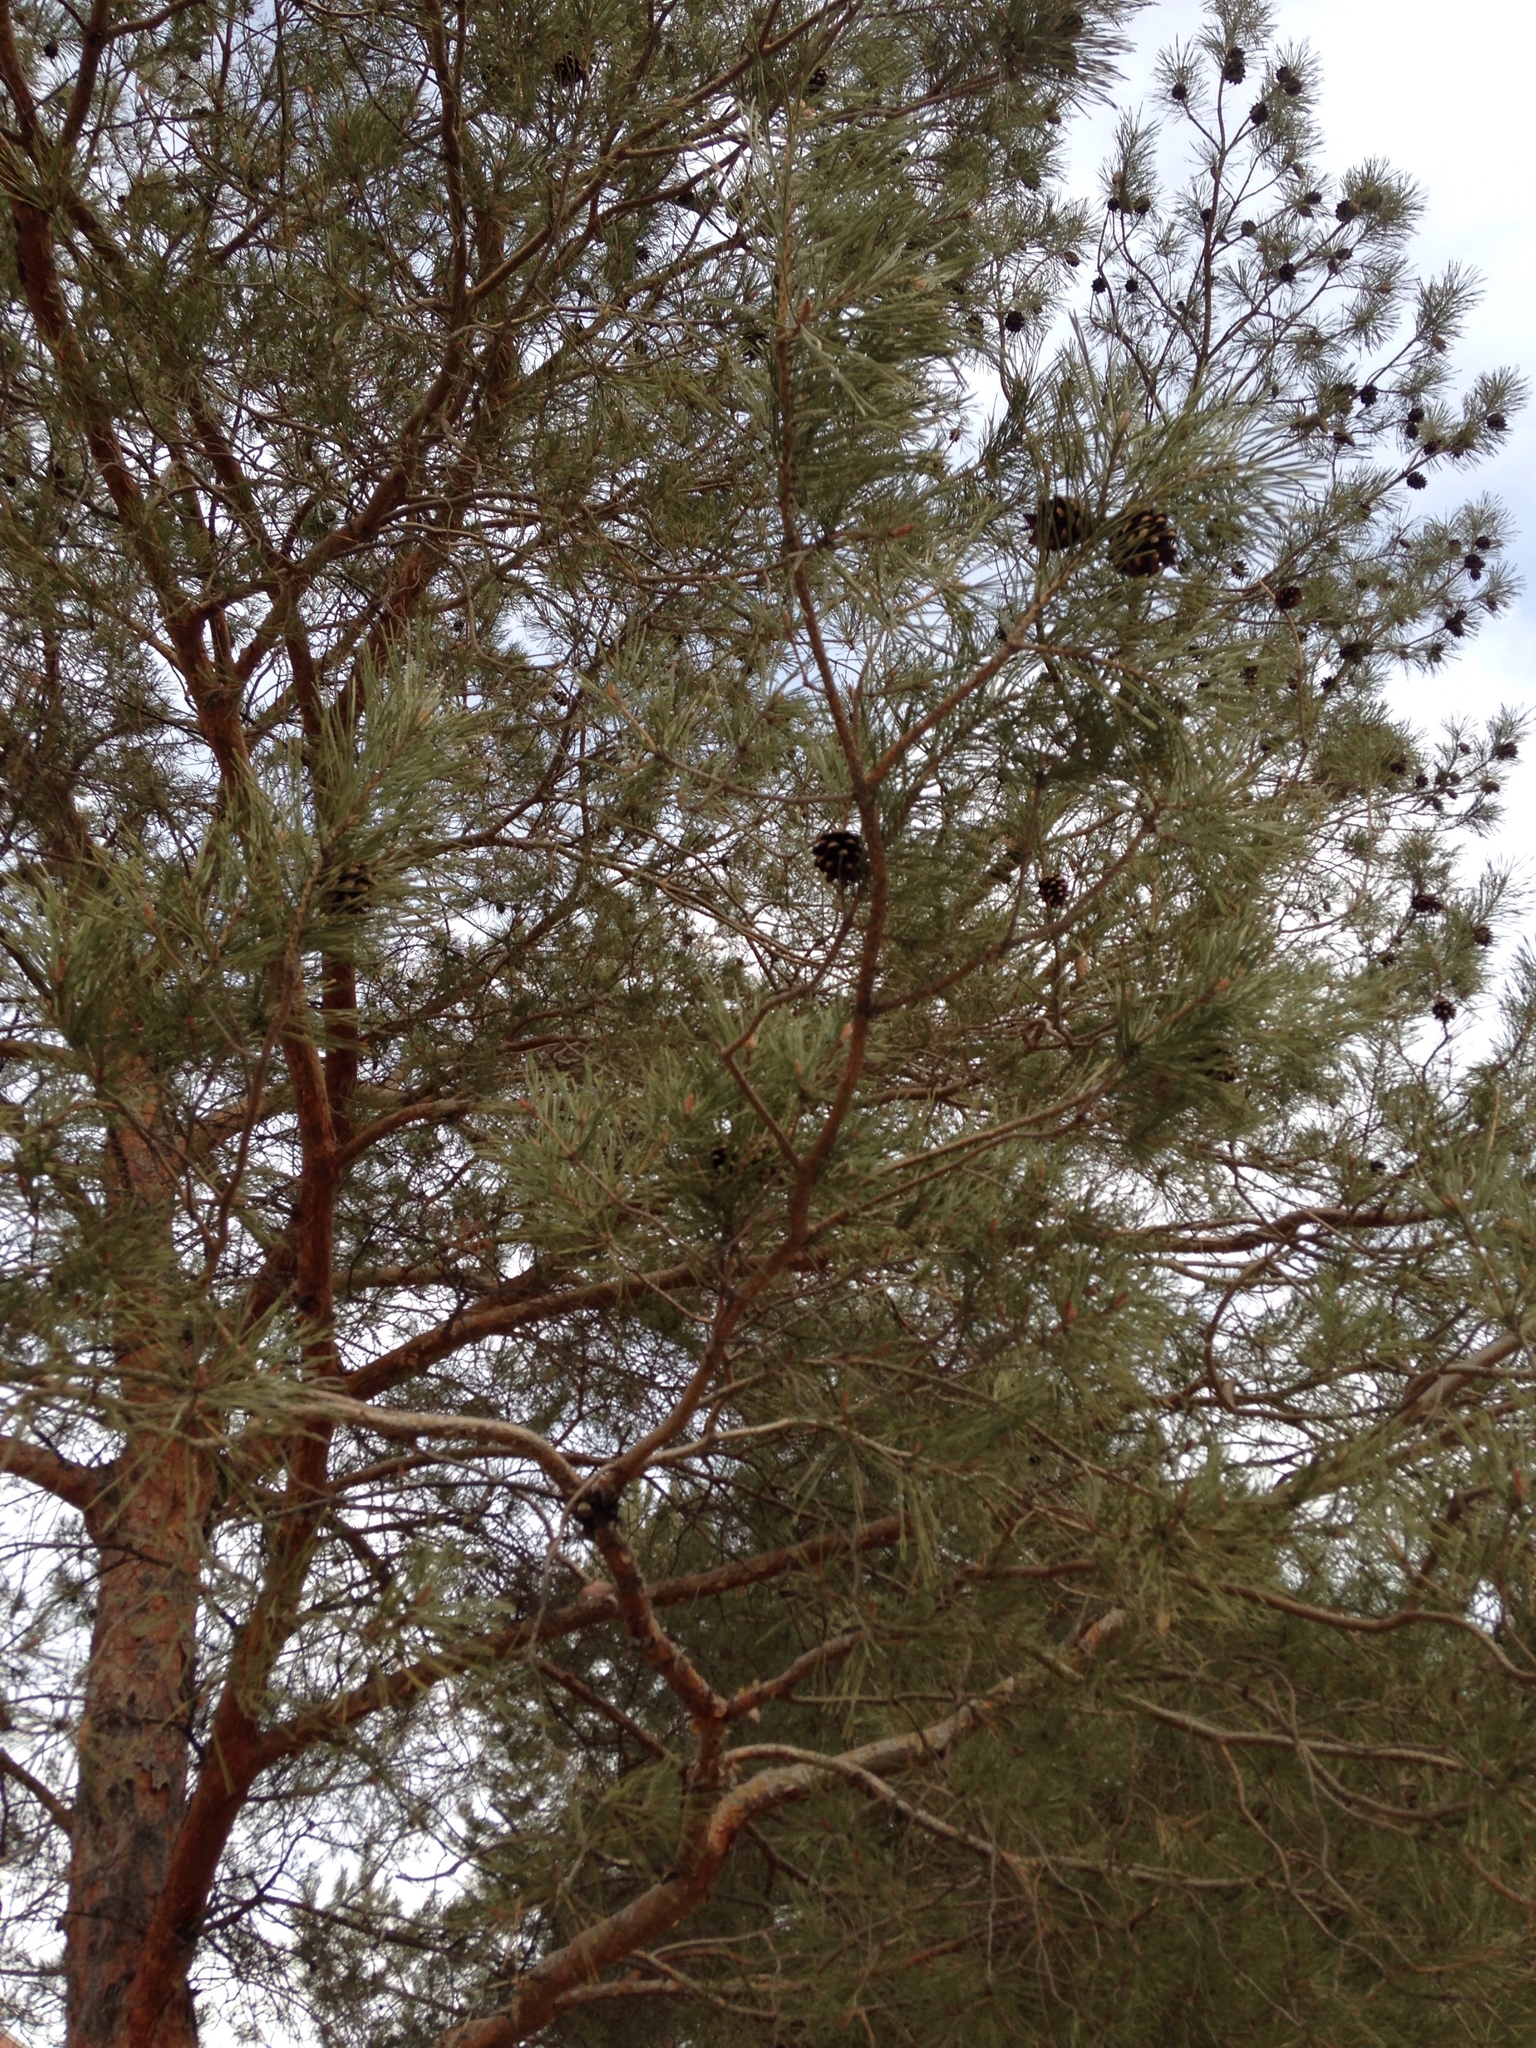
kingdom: Plantae
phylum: Tracheophyta
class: Pinopsida
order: Pinales
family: Pinaceae
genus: Pinus
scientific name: Pinus sylvestris
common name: Scots pine
